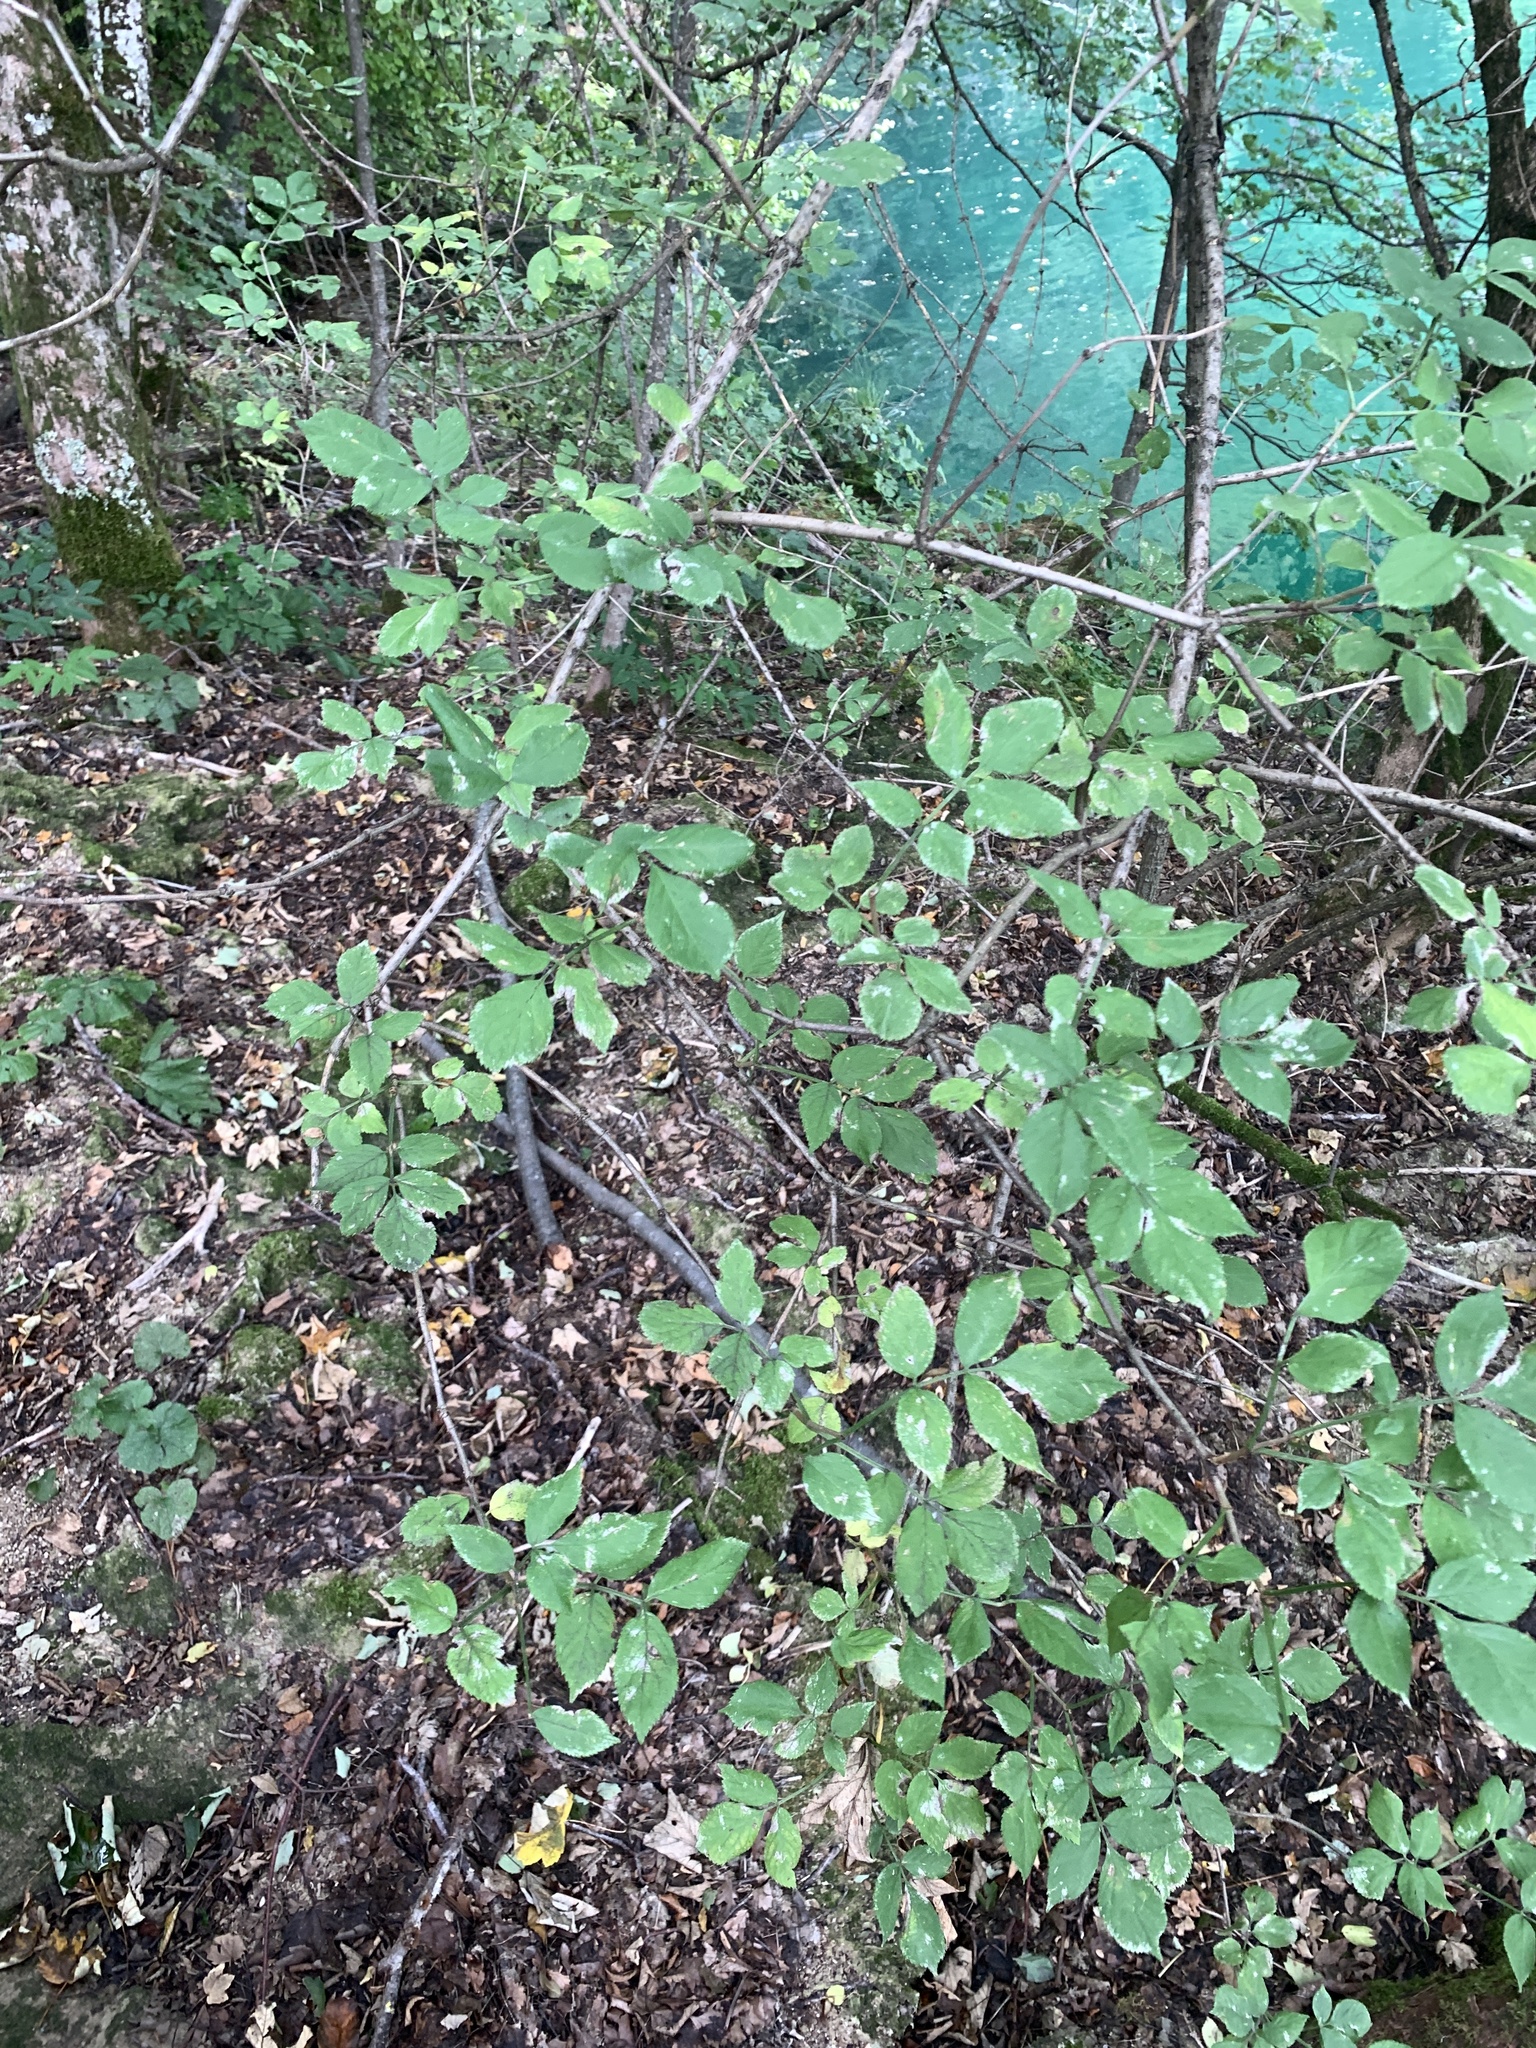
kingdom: Plantae
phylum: Tracheophyta
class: Magnoliopsida
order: Dipsacales
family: Viburnaceae
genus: Sambucus
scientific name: Sambucus nigra
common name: Elder
